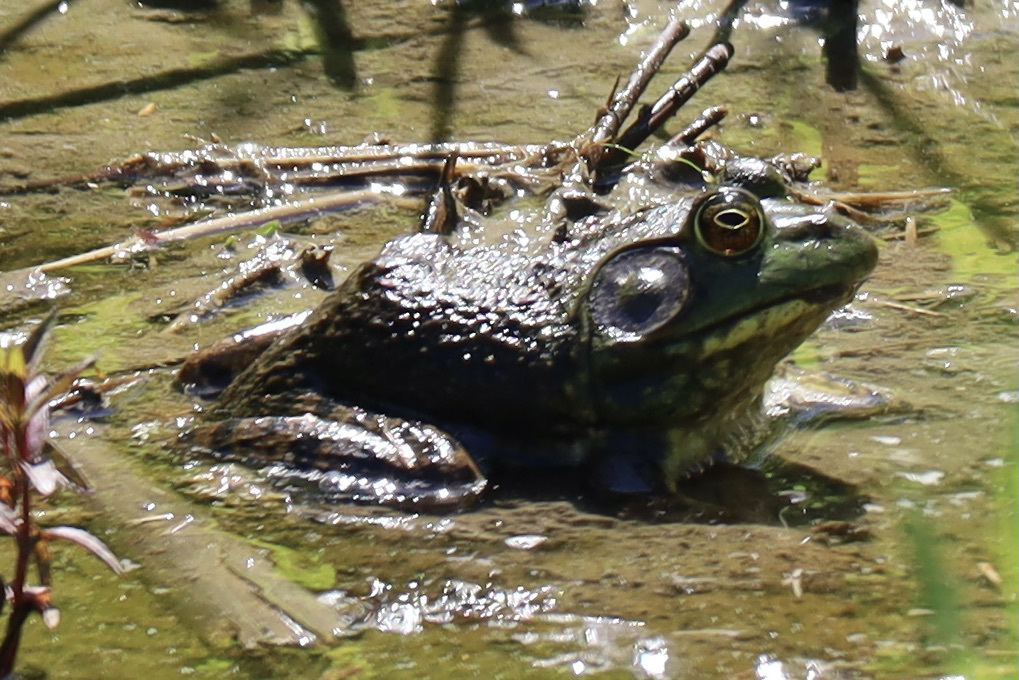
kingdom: Animalia
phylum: Chordata
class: Amphibia
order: Anura
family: Ranidae
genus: Lithobates
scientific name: Lithobates catesbeianus
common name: American bullfrog
